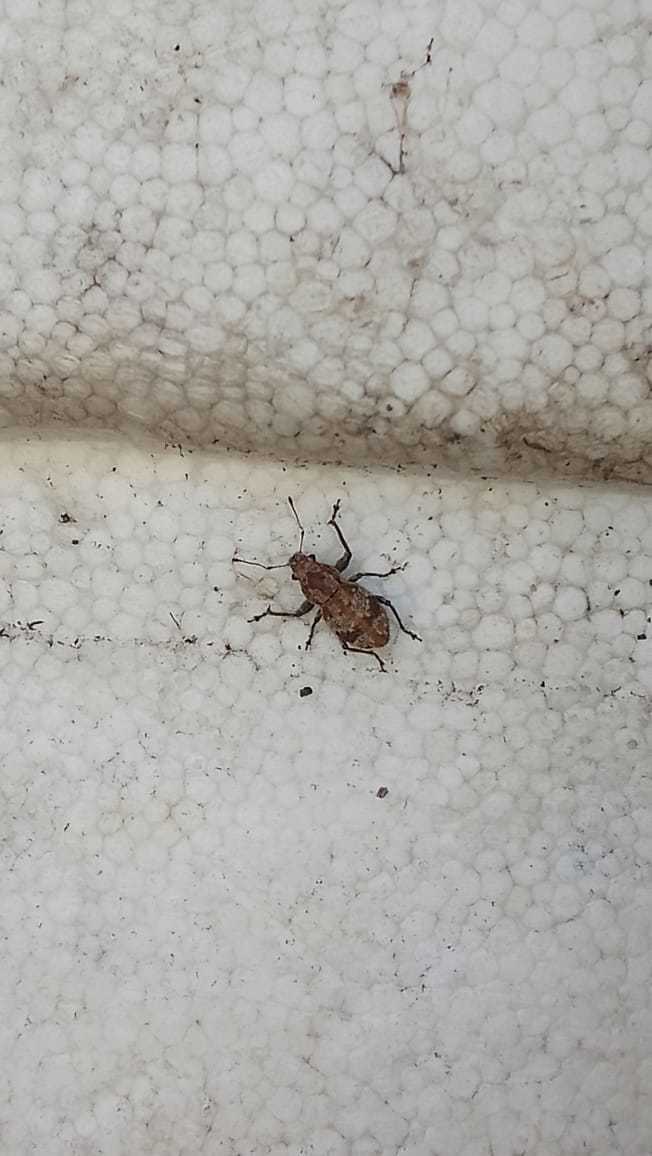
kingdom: Animalia
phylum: Arthropoda
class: Insecta
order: Coleoptera
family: Curculionidae
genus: Pantomorus
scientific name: Pantomorus
